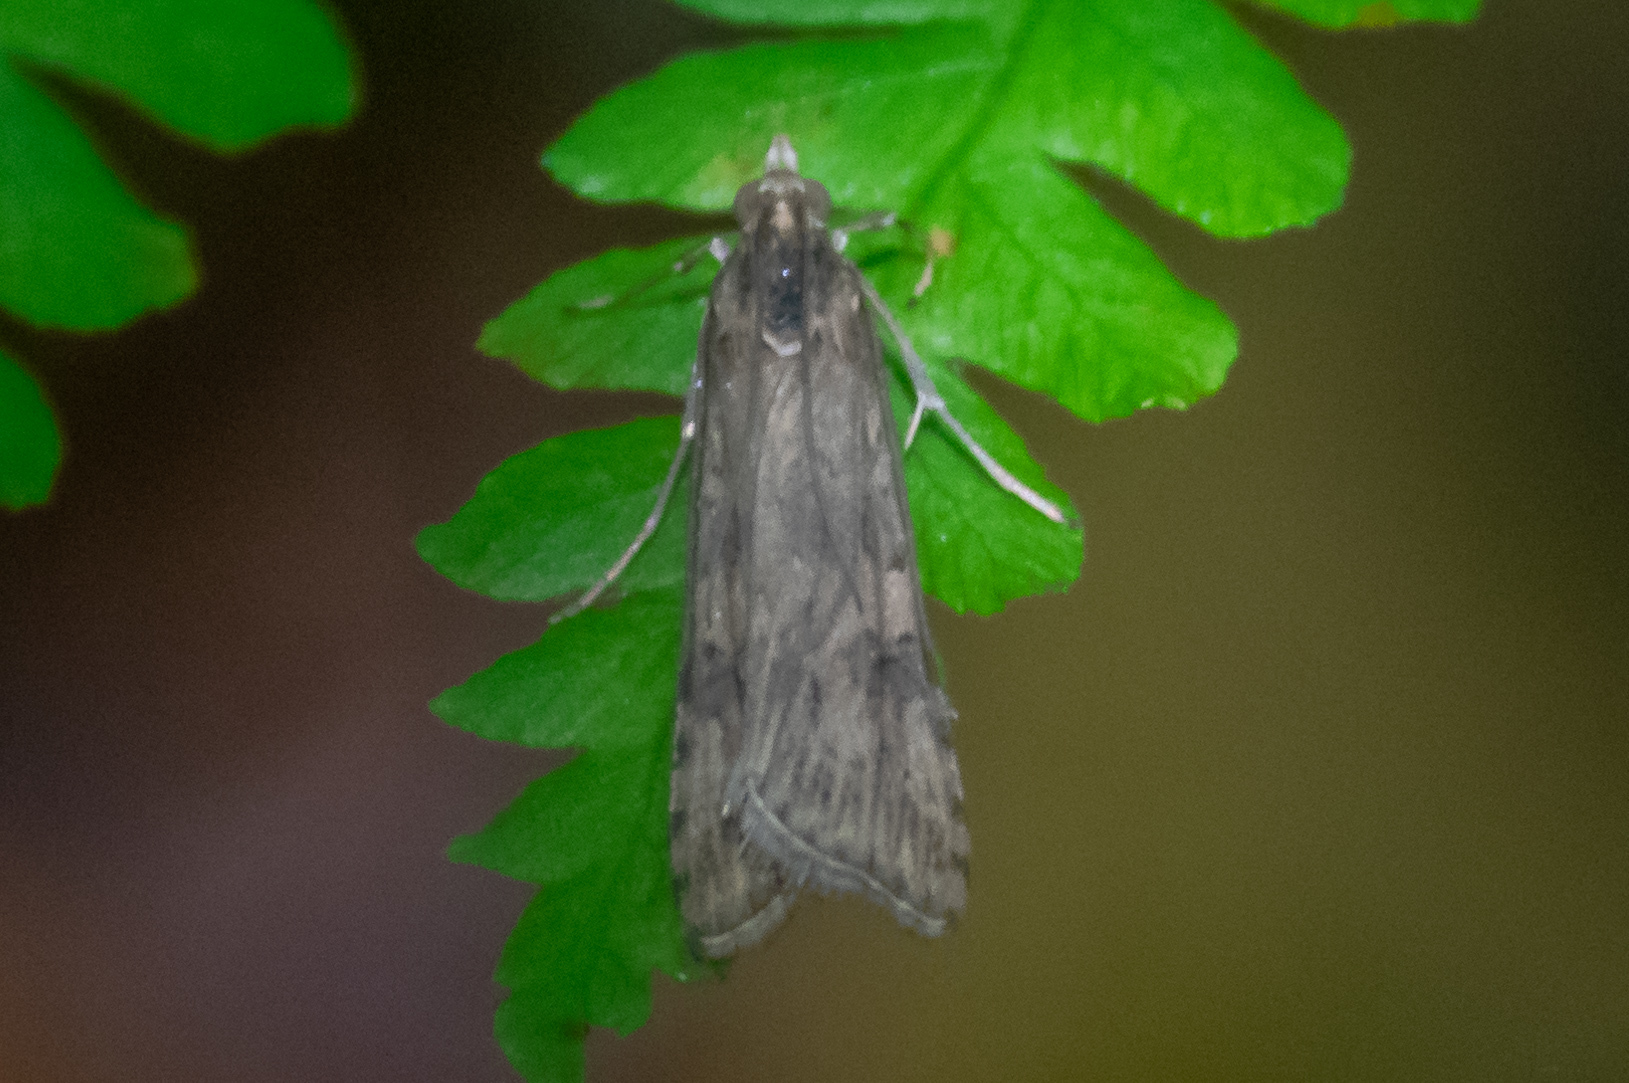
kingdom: Animalia
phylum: Arthropoda
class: Insecta
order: Lepidoptera
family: Crambidae
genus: Nomophila
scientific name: Nomophila nearctica
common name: American rush veneer
